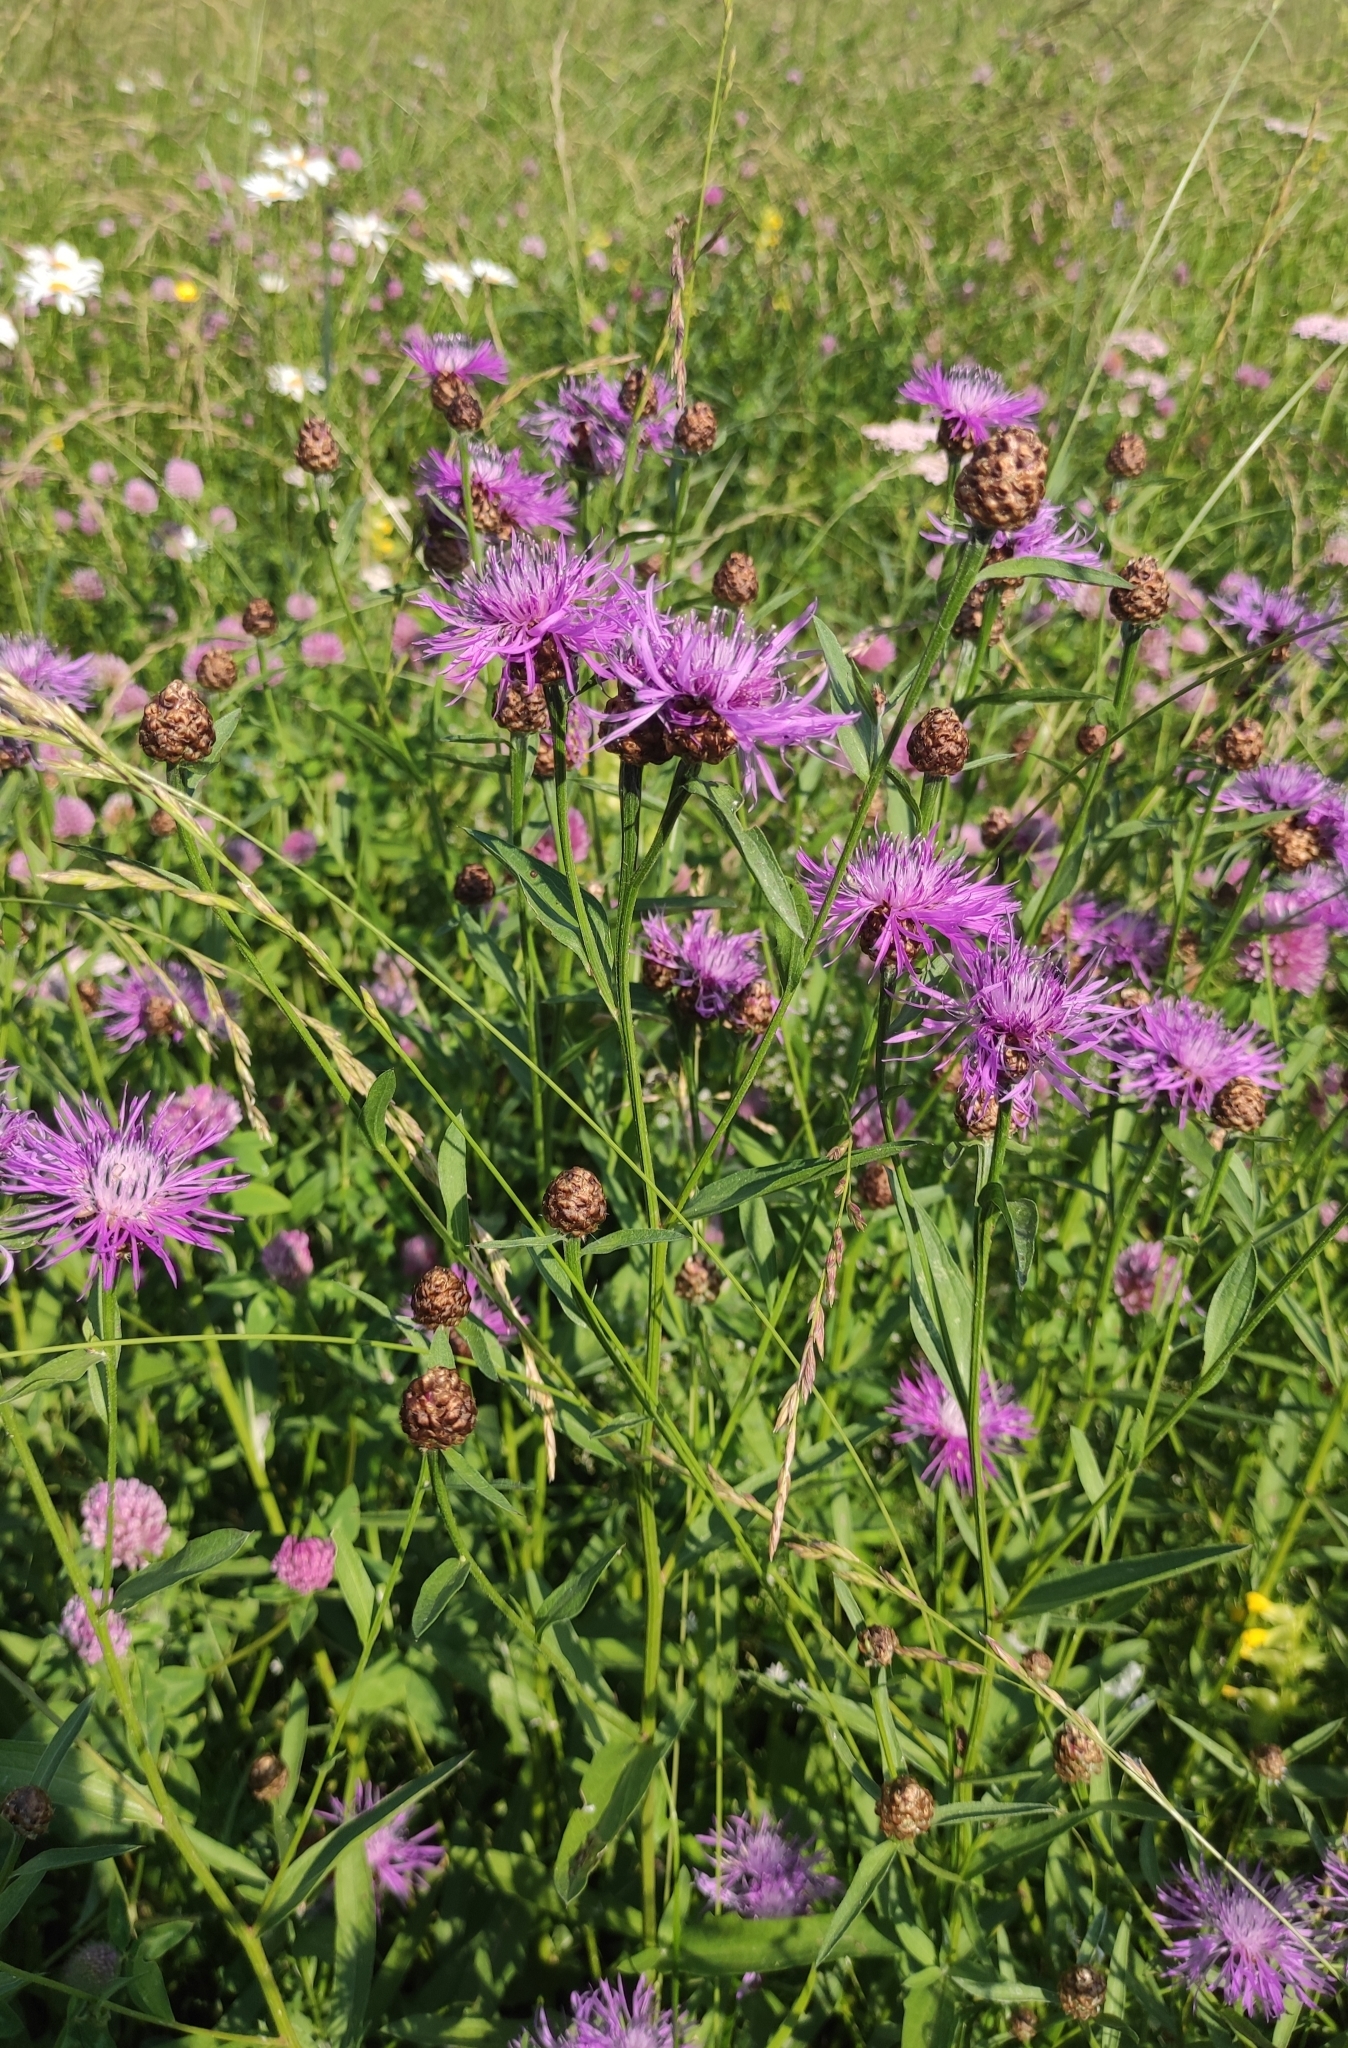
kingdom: Plantae
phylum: Tracheophyta
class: Magnoliopsida
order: Asterales
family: Asteraceae
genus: Centaurea
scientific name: Centaurea jacea
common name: Brown knapweed
